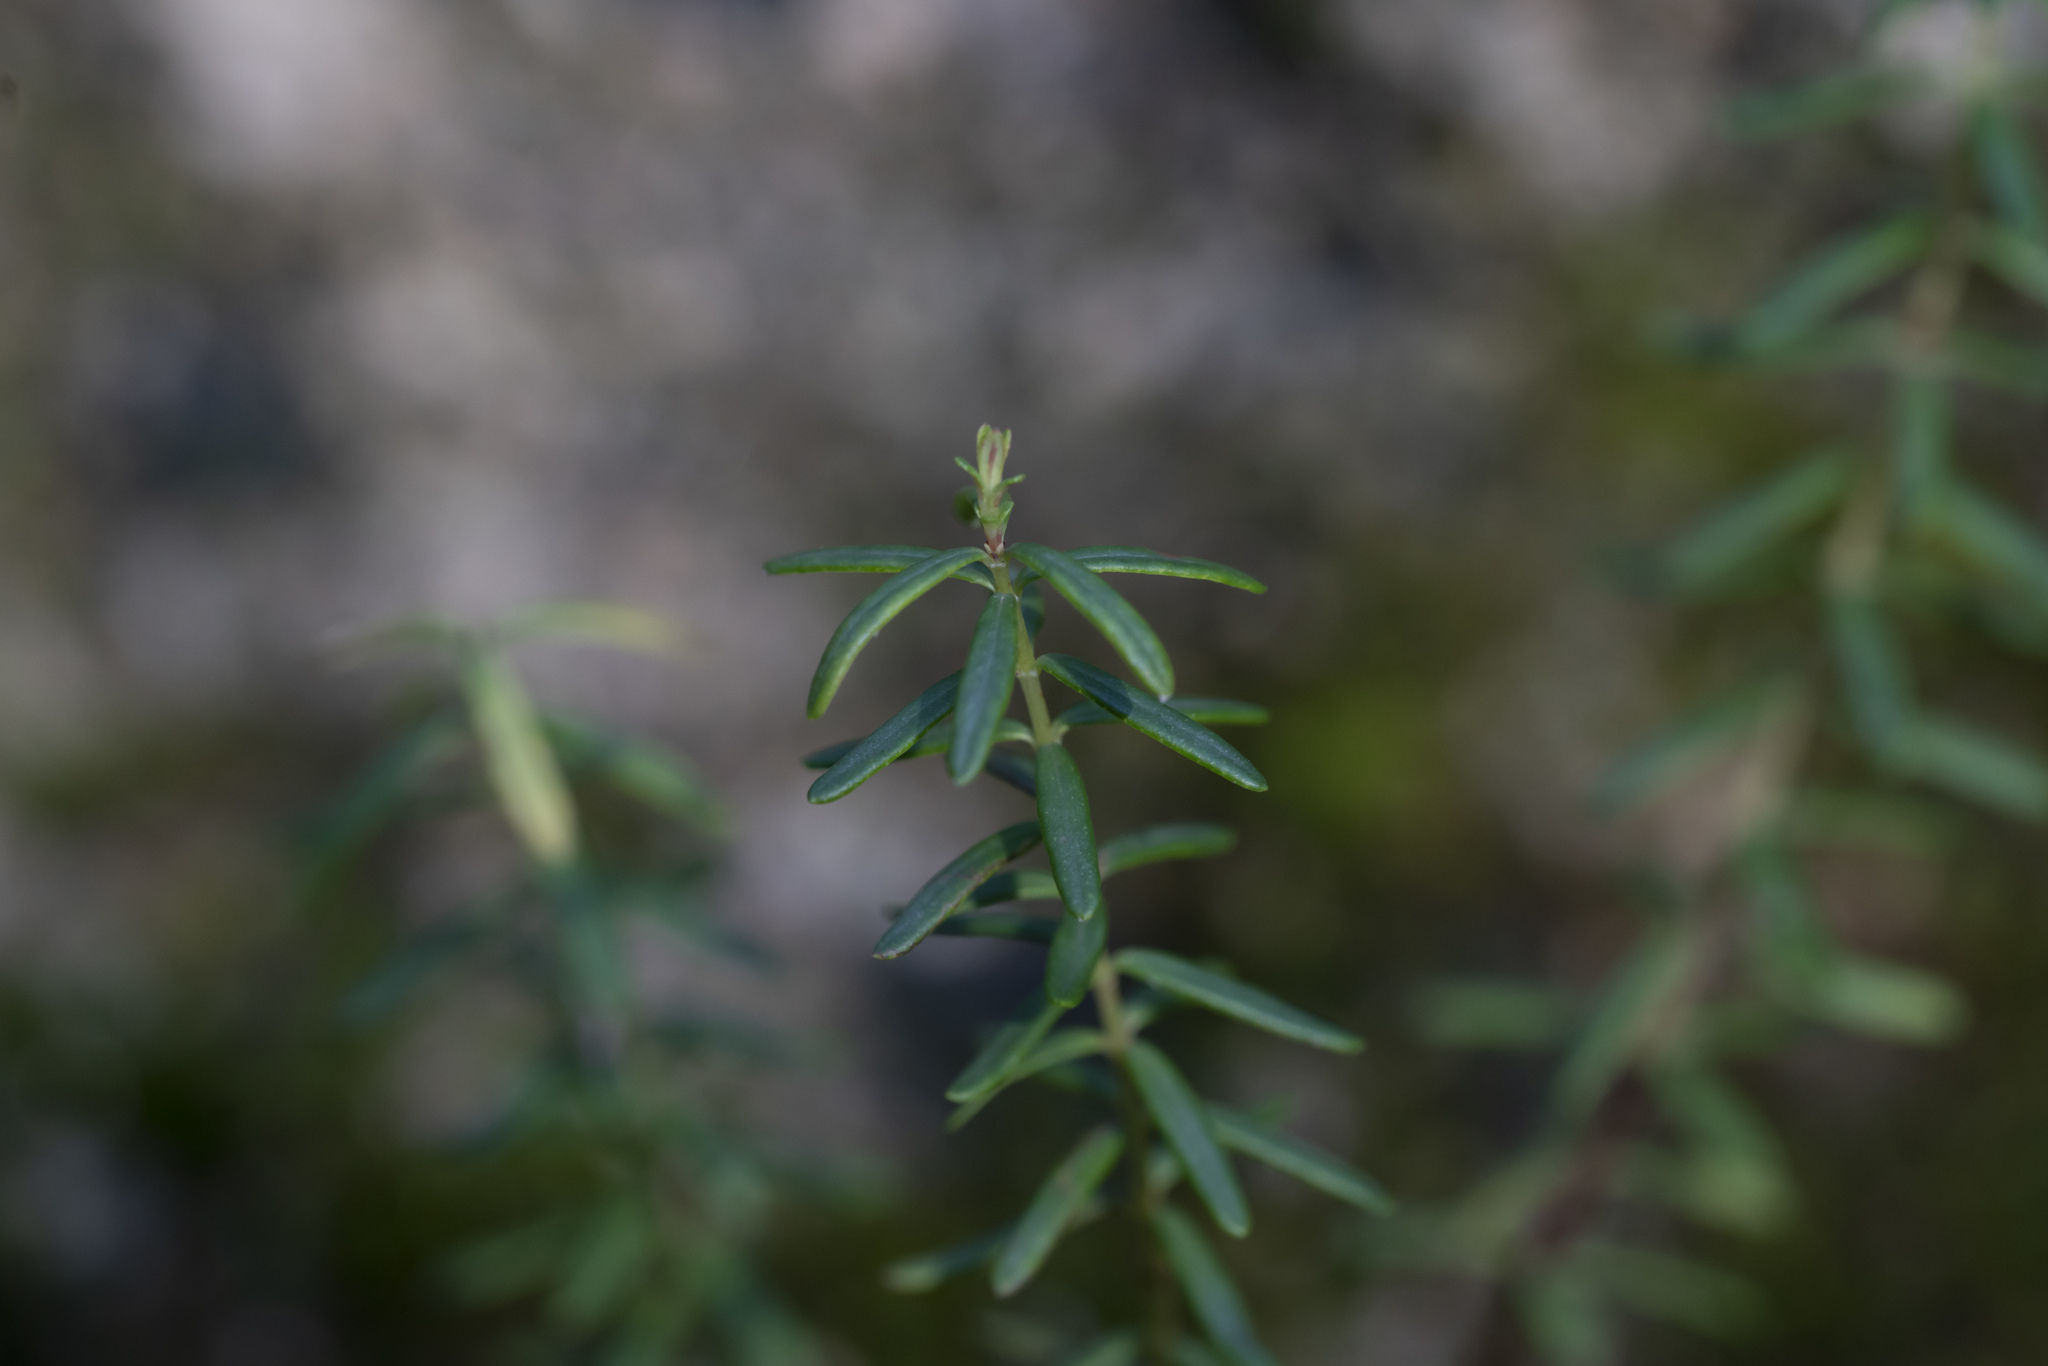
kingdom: Plantae
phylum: Tracheophyta
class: Magnoliopsida
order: Malpighiales
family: Hypericaceae
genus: Hypericum
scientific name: Hypericum empetrifolium
